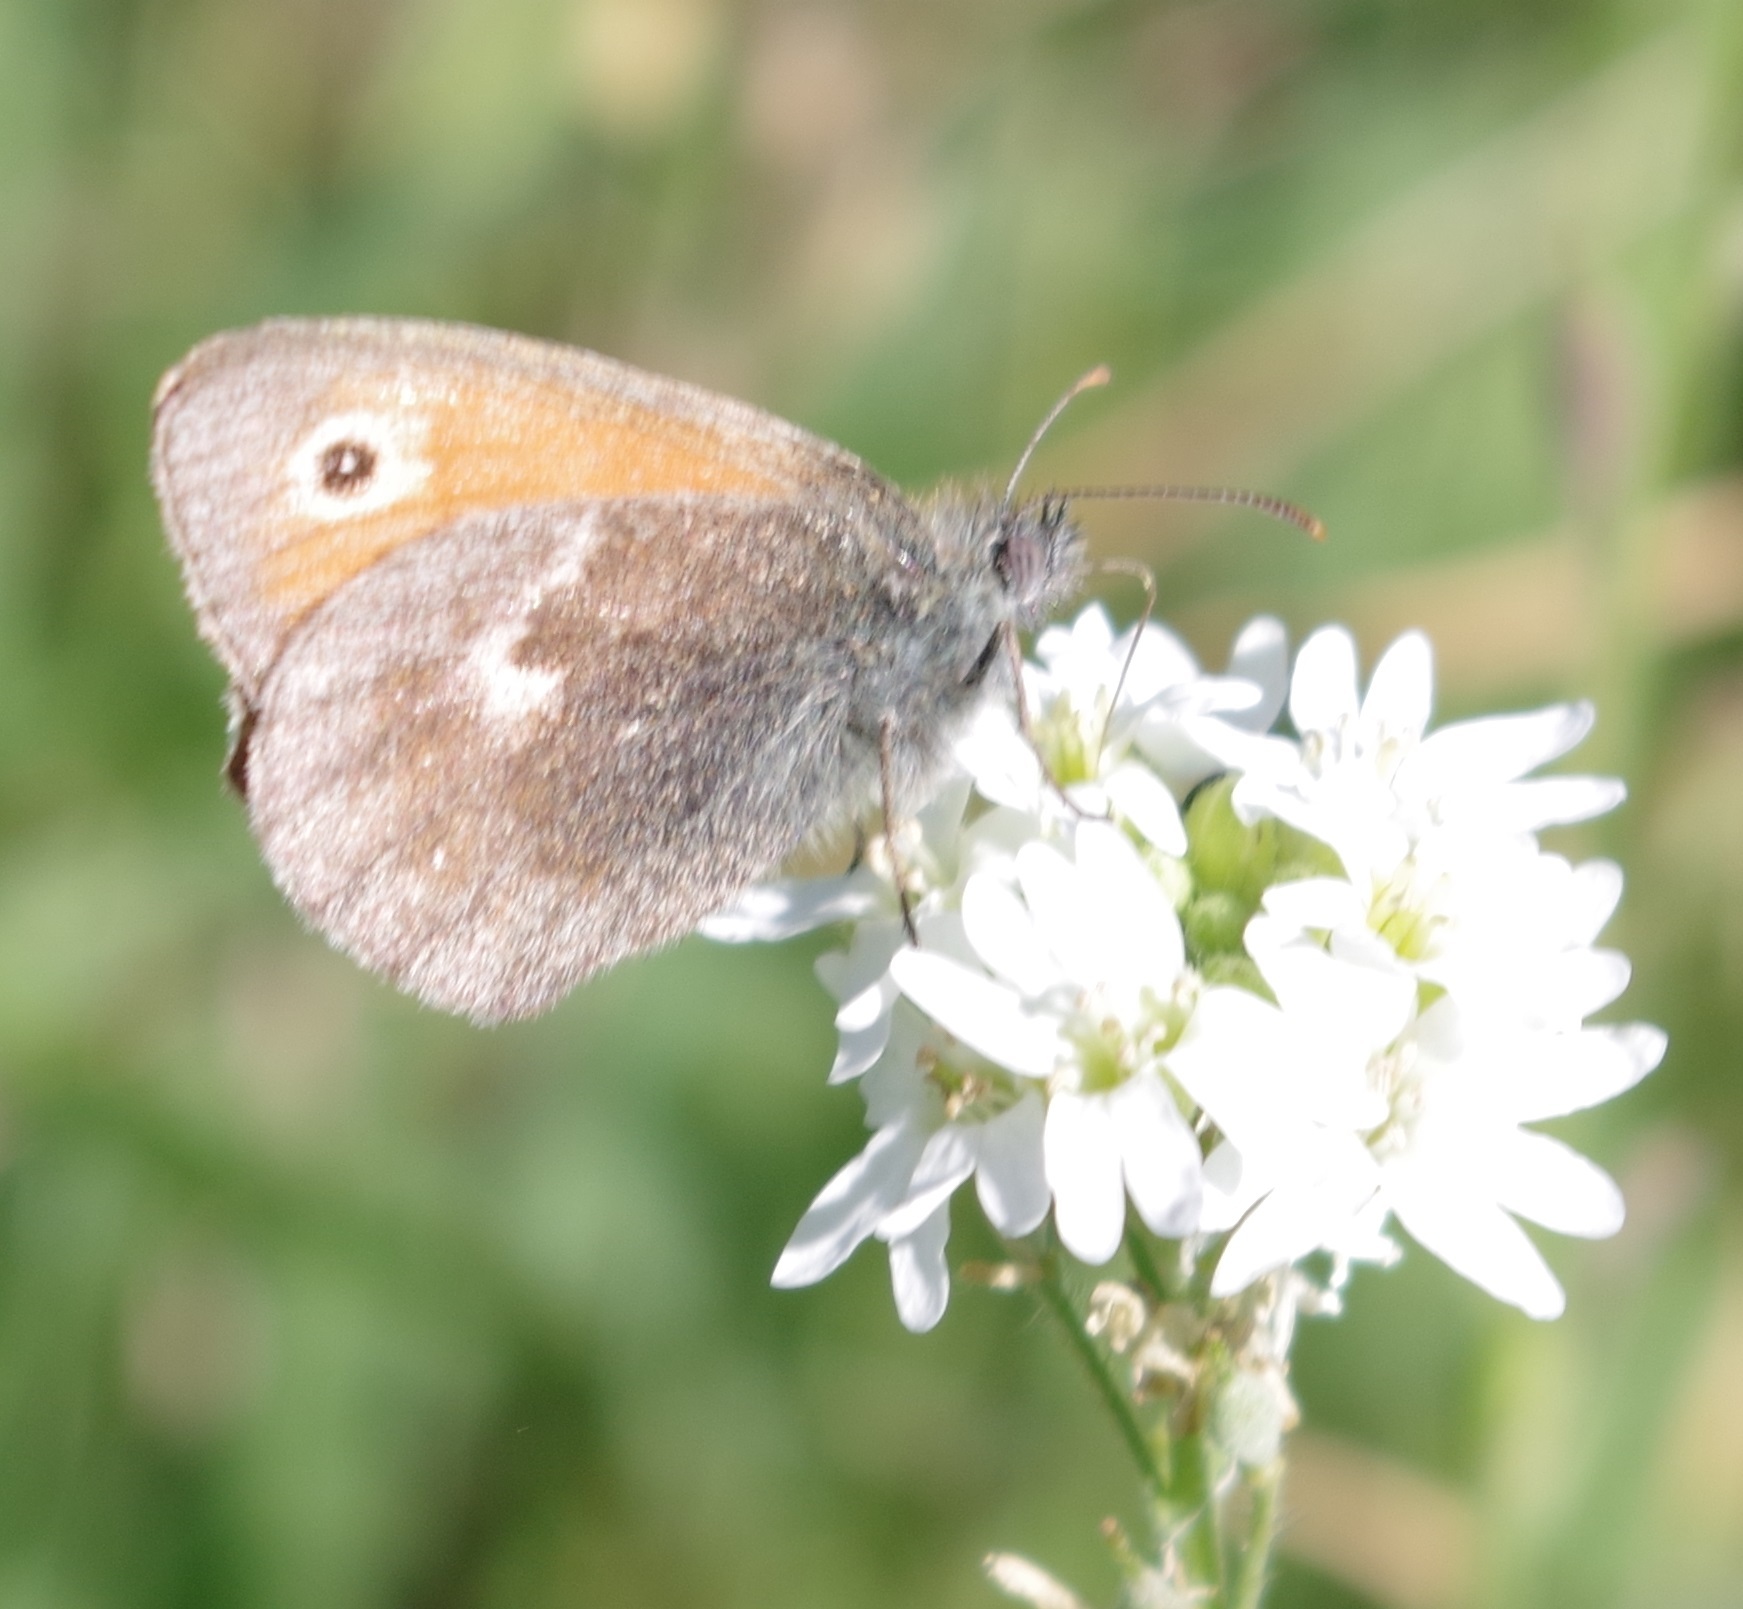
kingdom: Animalia
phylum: Arthropoda
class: Insecta
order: Lepidoptera
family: Nymphalidae
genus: Coenonympha
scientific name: Coenonympha pamphilus
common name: Small heath
